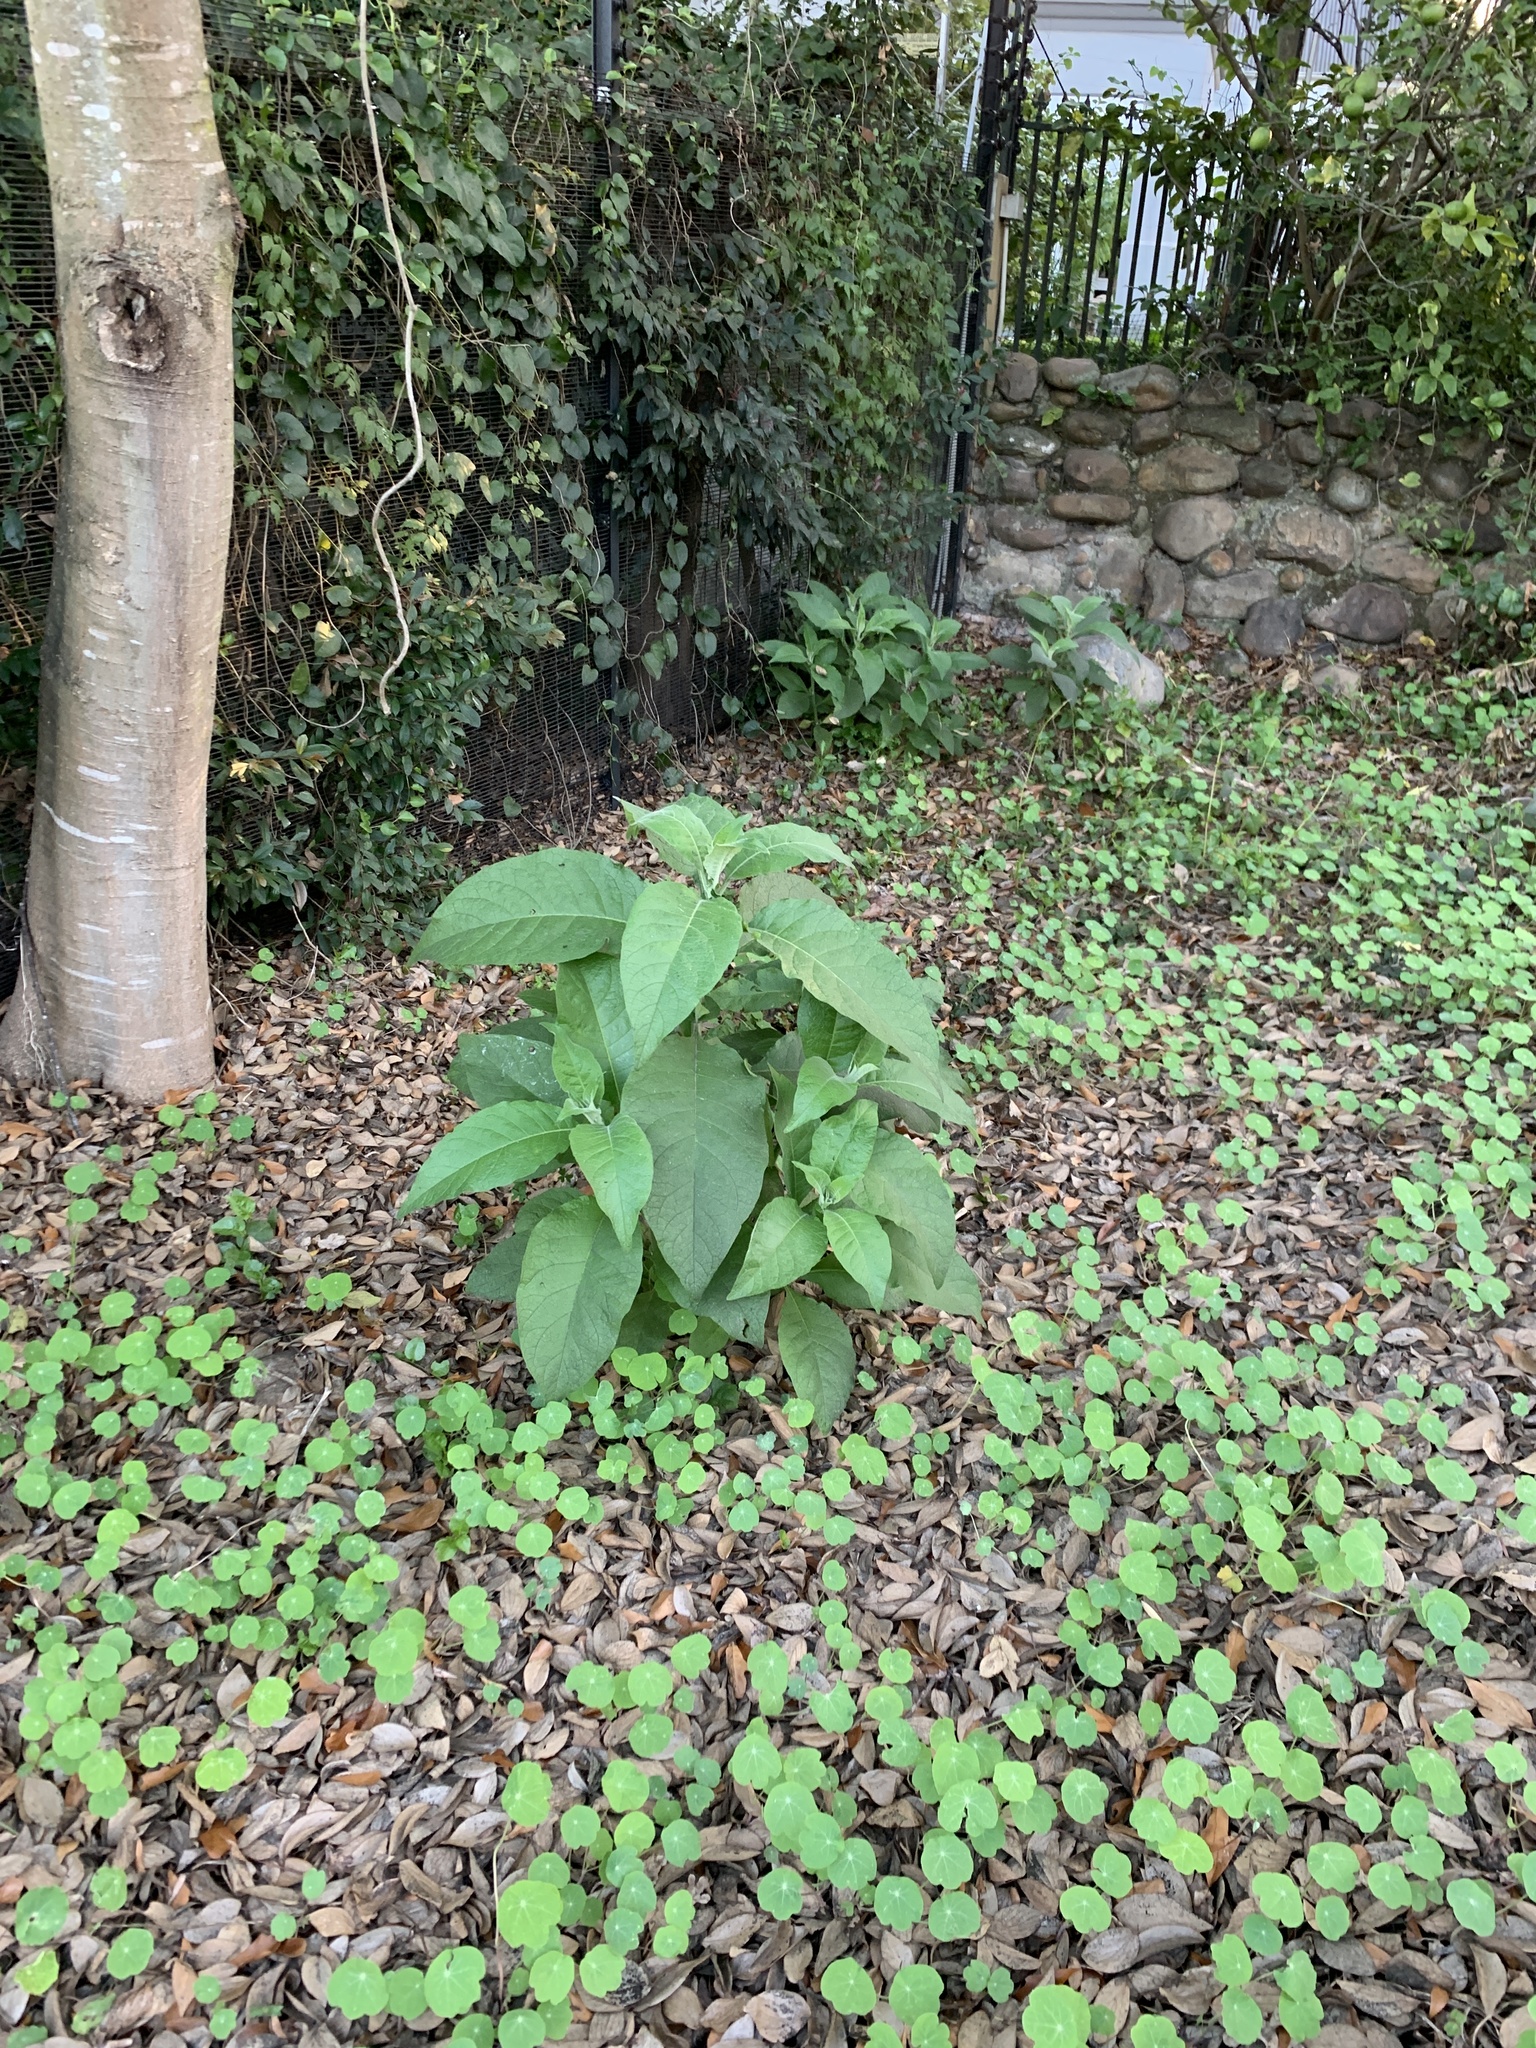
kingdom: Plantae
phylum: Tracheophyta
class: Magnoliopsida
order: Solanales
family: Solanaceae
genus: Solanum
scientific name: Solanum mauritianum
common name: Earleaf nightshade
